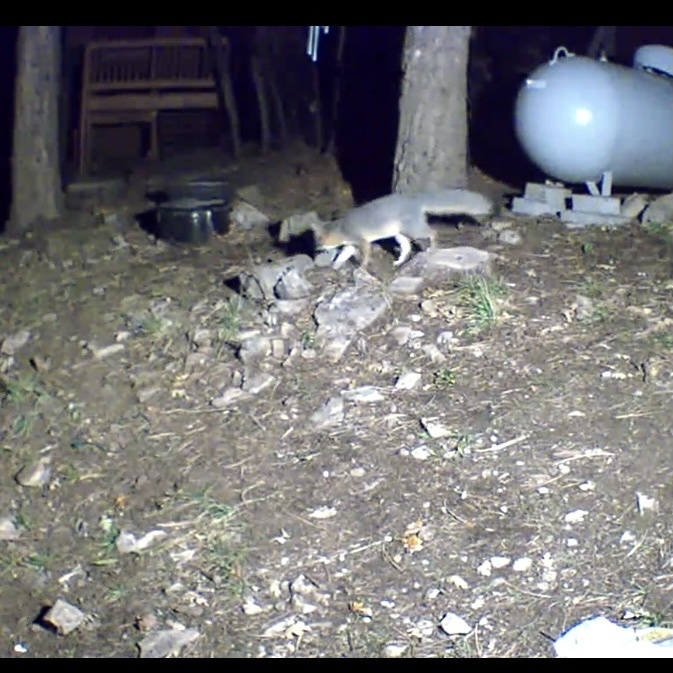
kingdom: Animalia
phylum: Chordata
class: Mammalia
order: Carnivora
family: Canidae
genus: Urocyon
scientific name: Urocyon cinereoargenteus
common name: Gray fox
